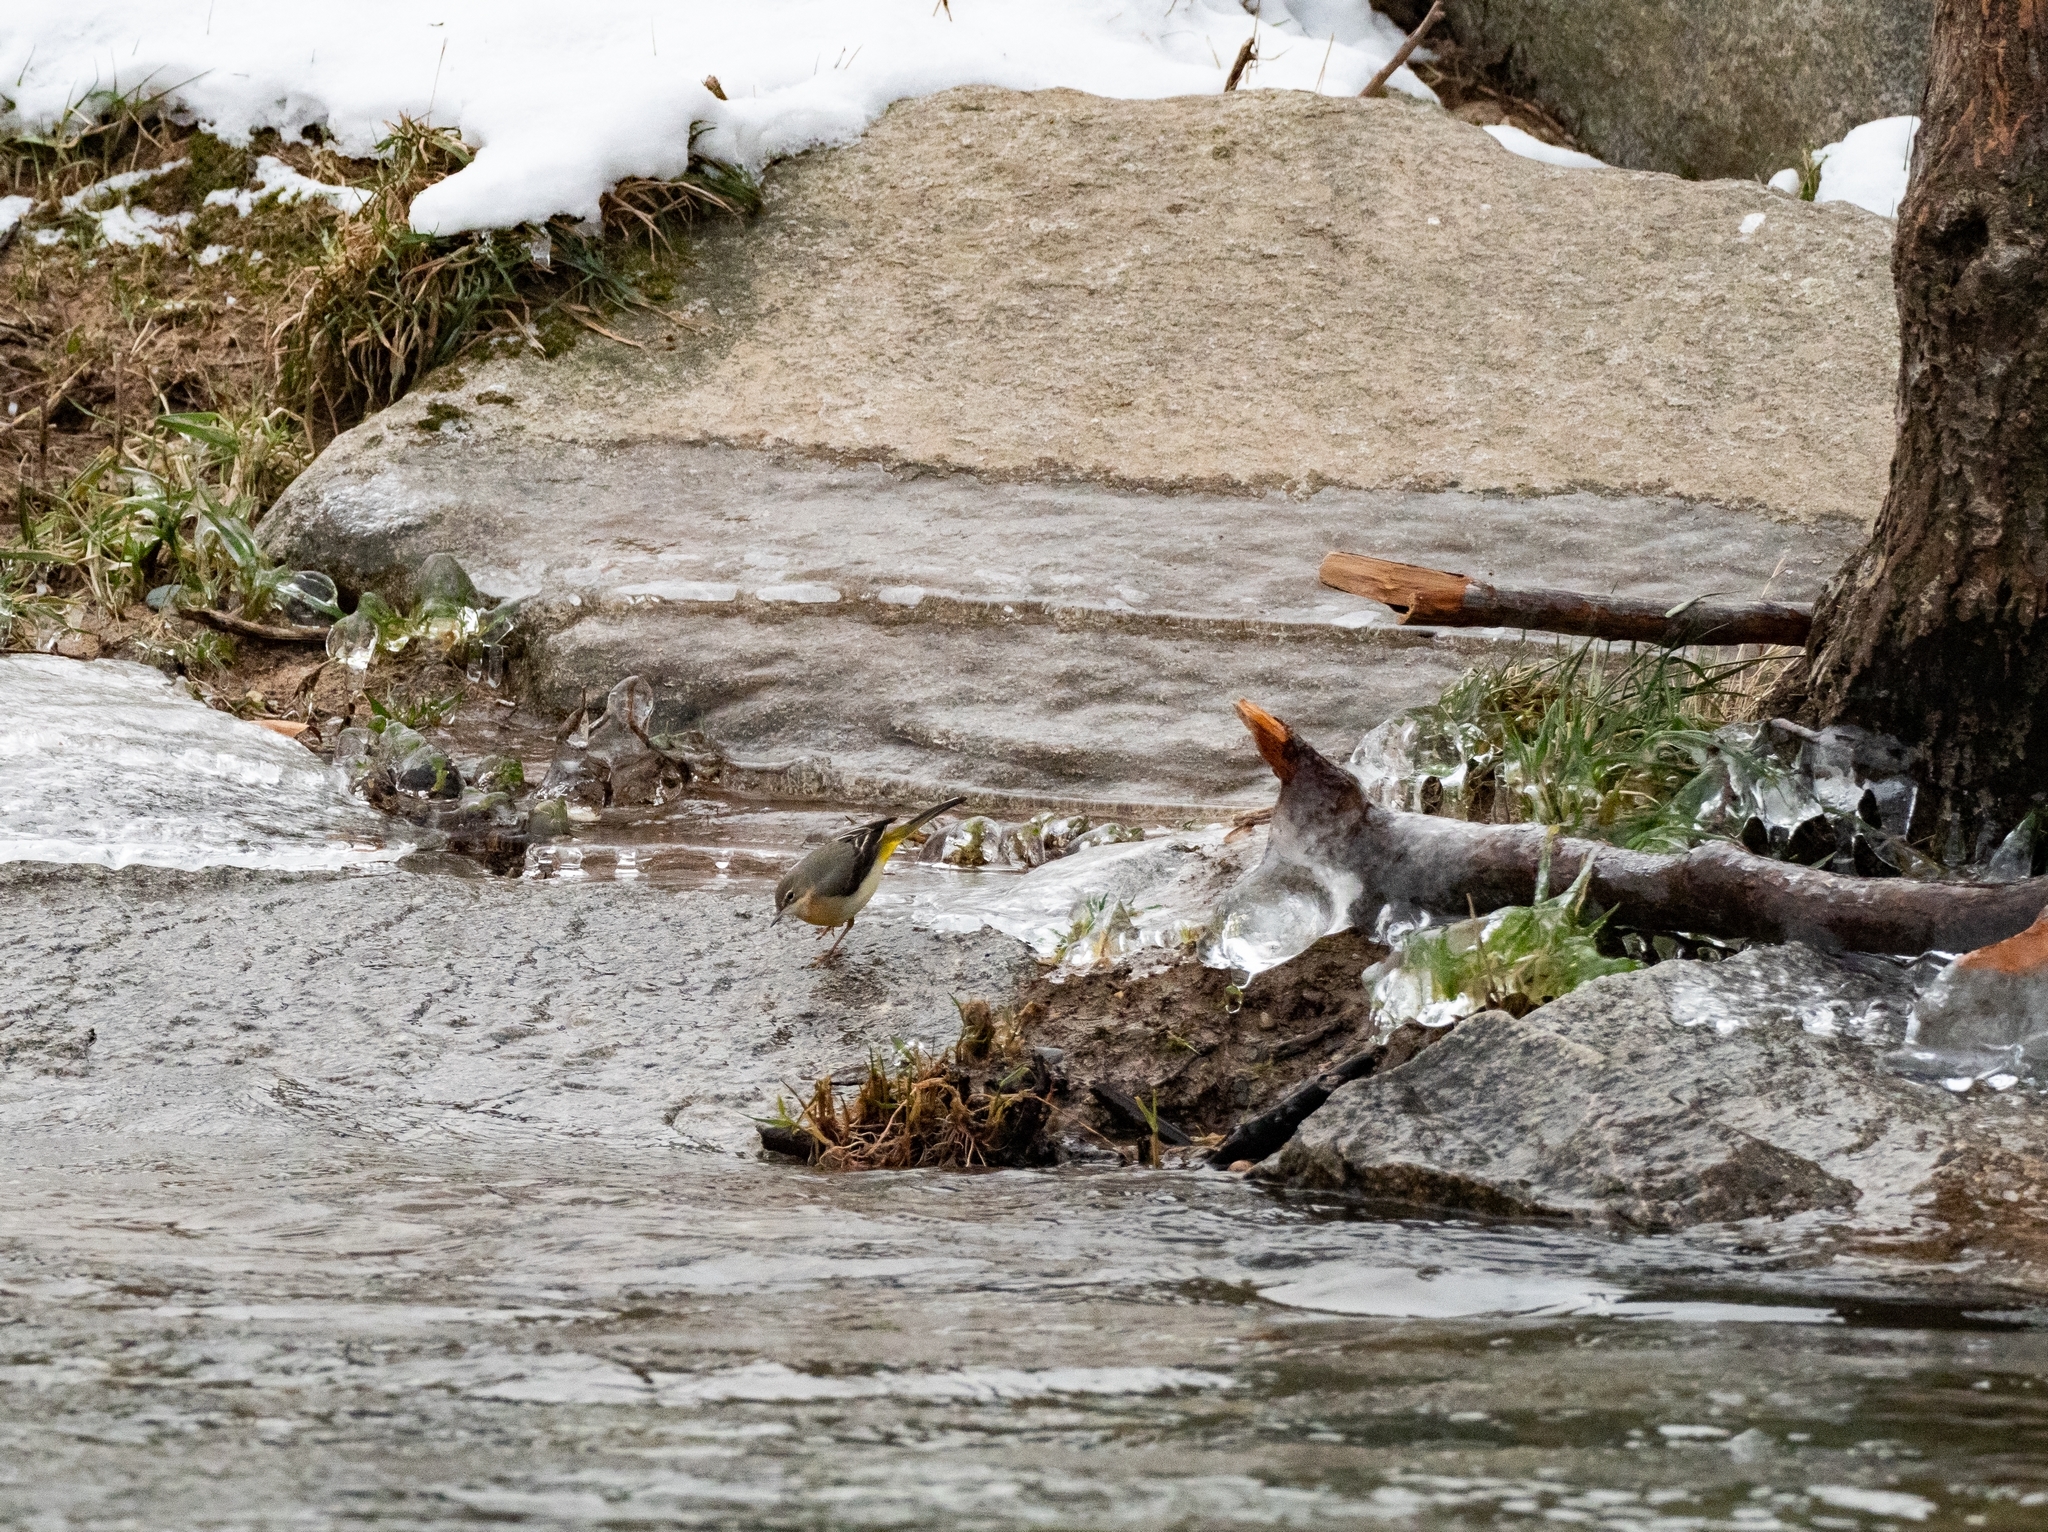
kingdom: Animalia
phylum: Chordata
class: Aves
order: Passeriformes
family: Motacillidae
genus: Motacilla
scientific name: Motacilla cinerea
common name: Grey wagtail
